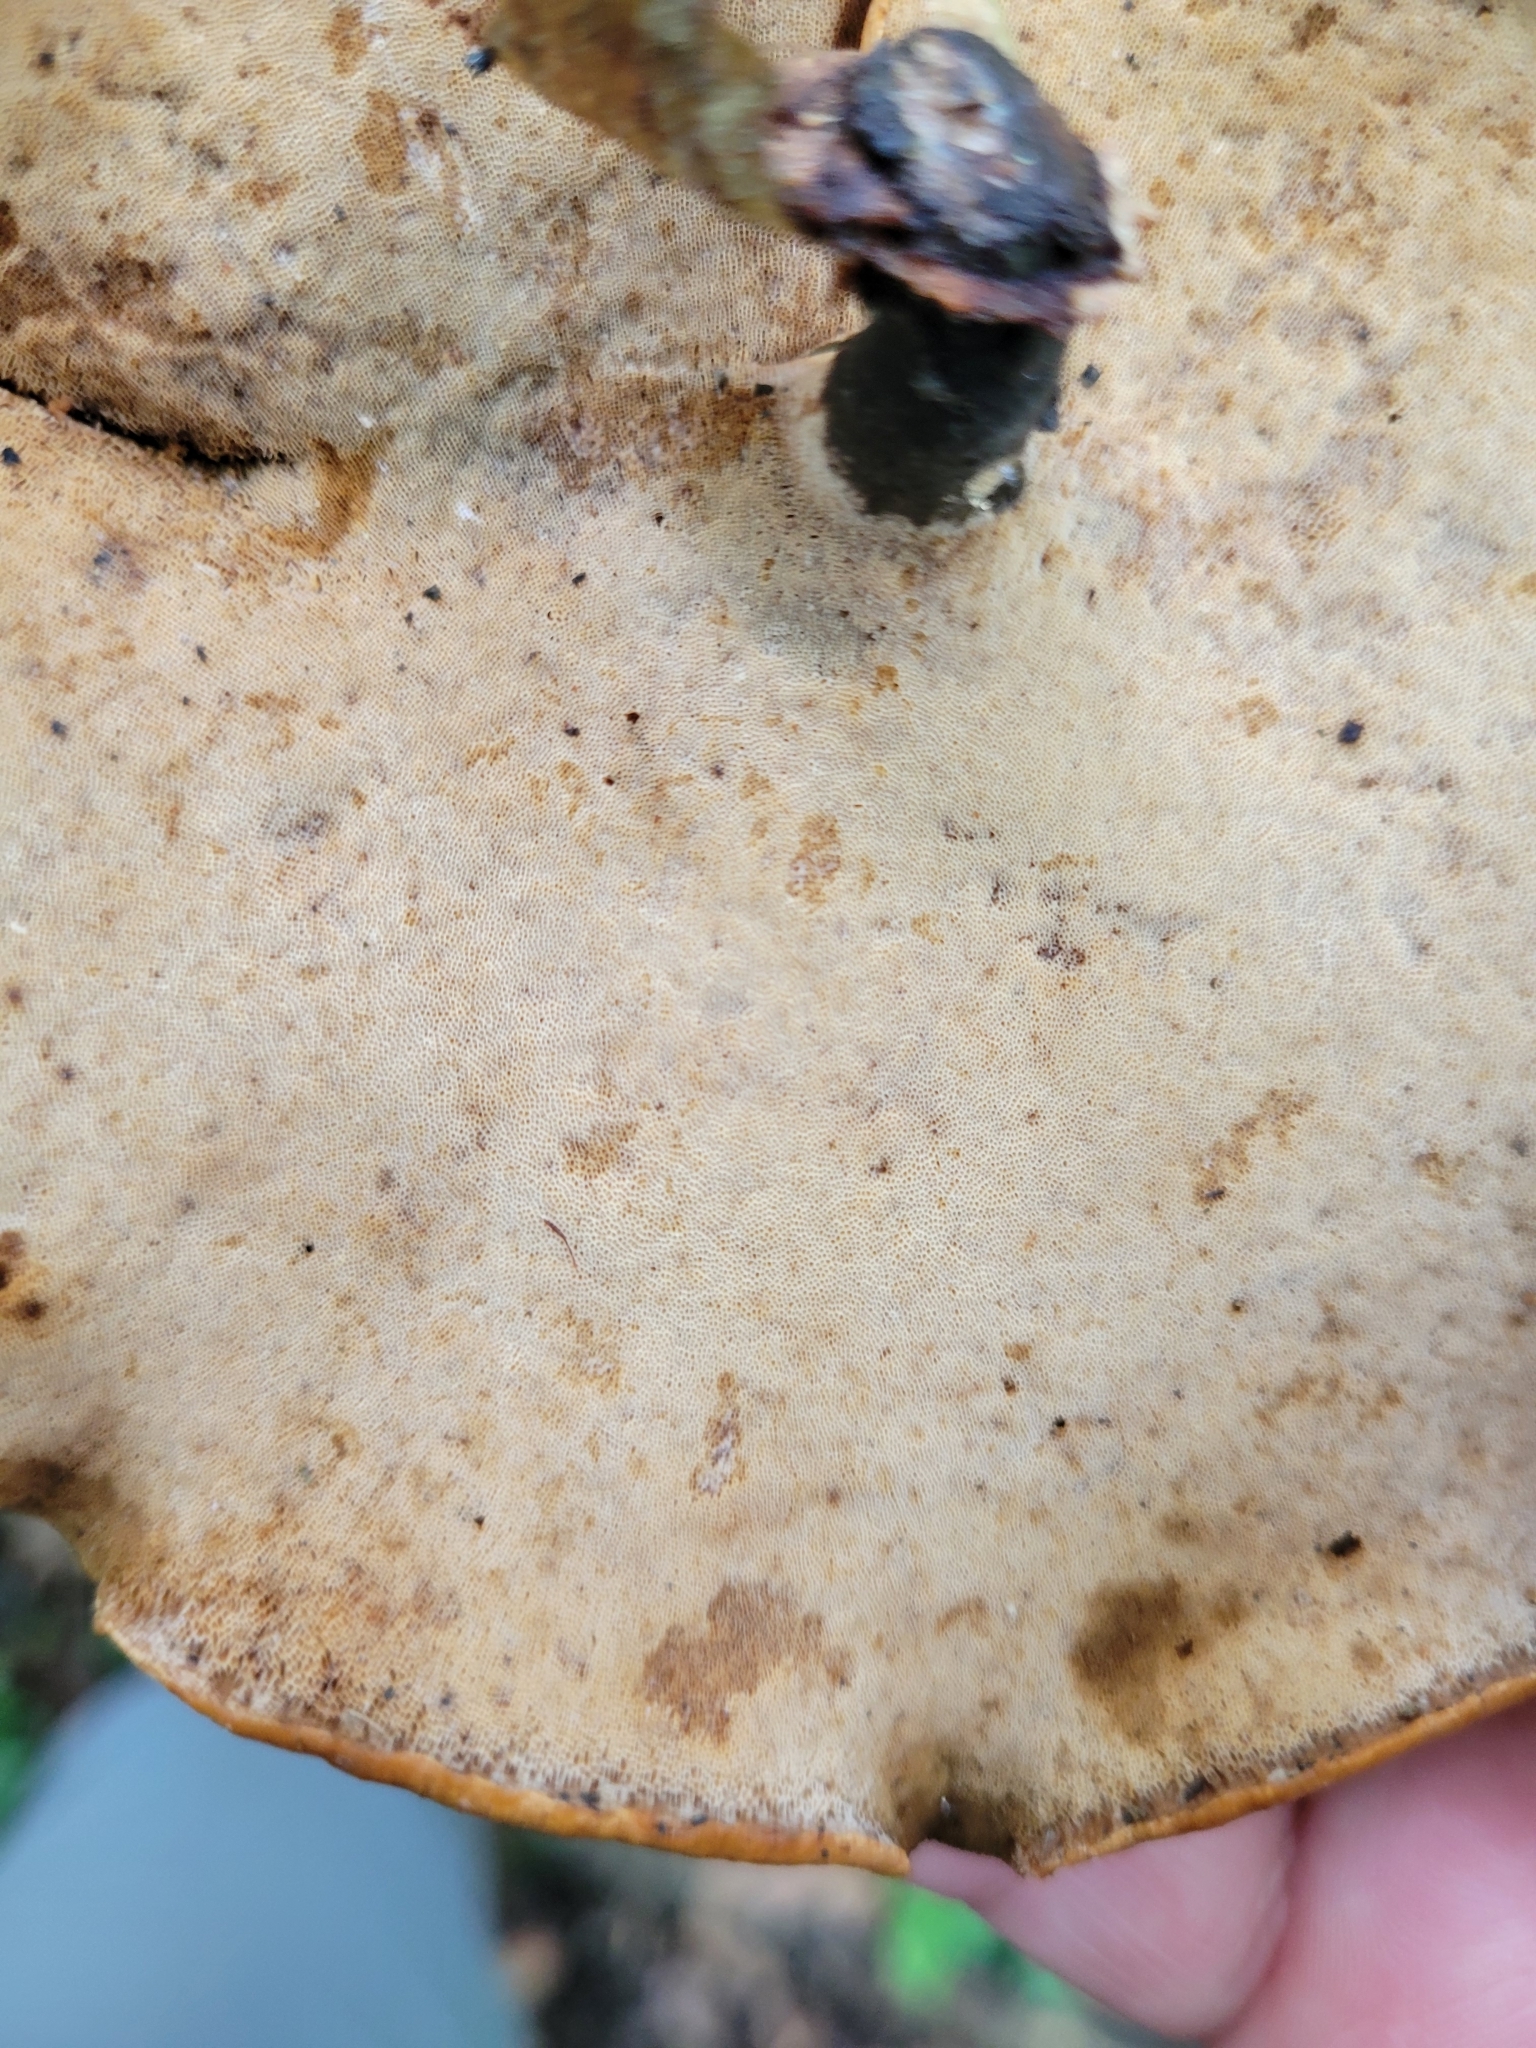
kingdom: Fungi
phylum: Basidiomycota
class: Agaricomycetes
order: Polyporales
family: Polyporaceae
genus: Cerioporus
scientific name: Cerioporus varius
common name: Elegant polypore
